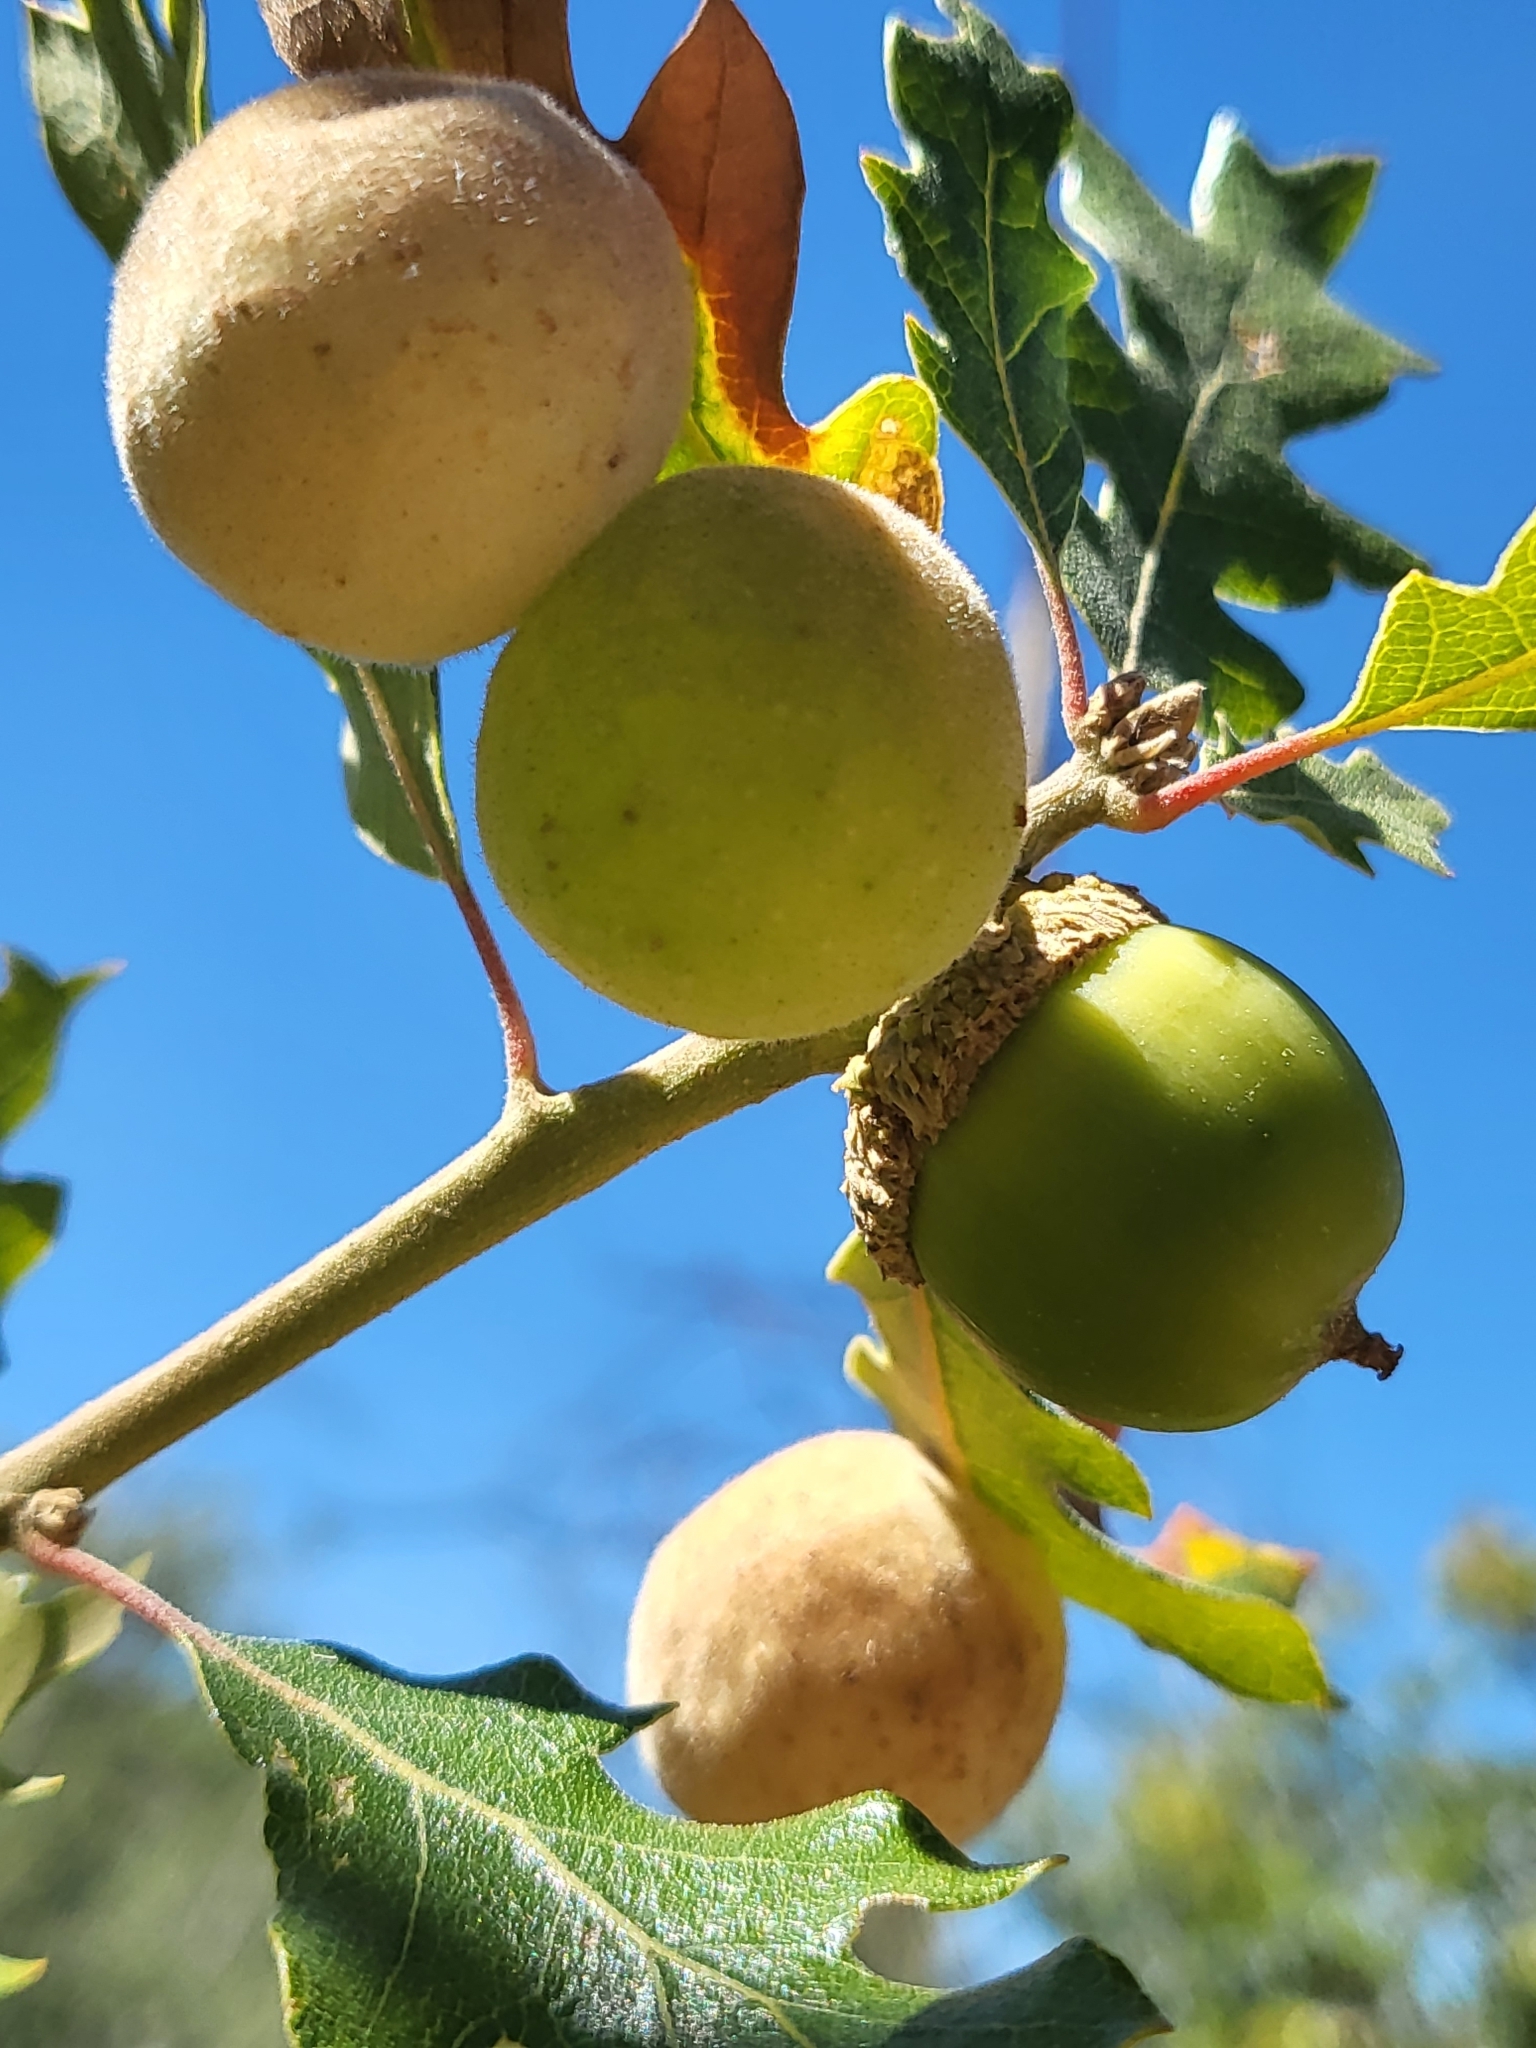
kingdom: Plantae
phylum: Tracheophyta
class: Magnoliopsida
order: Fagales
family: Fagaceae
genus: Quercus
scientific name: Quercus garryana
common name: Garry oak
